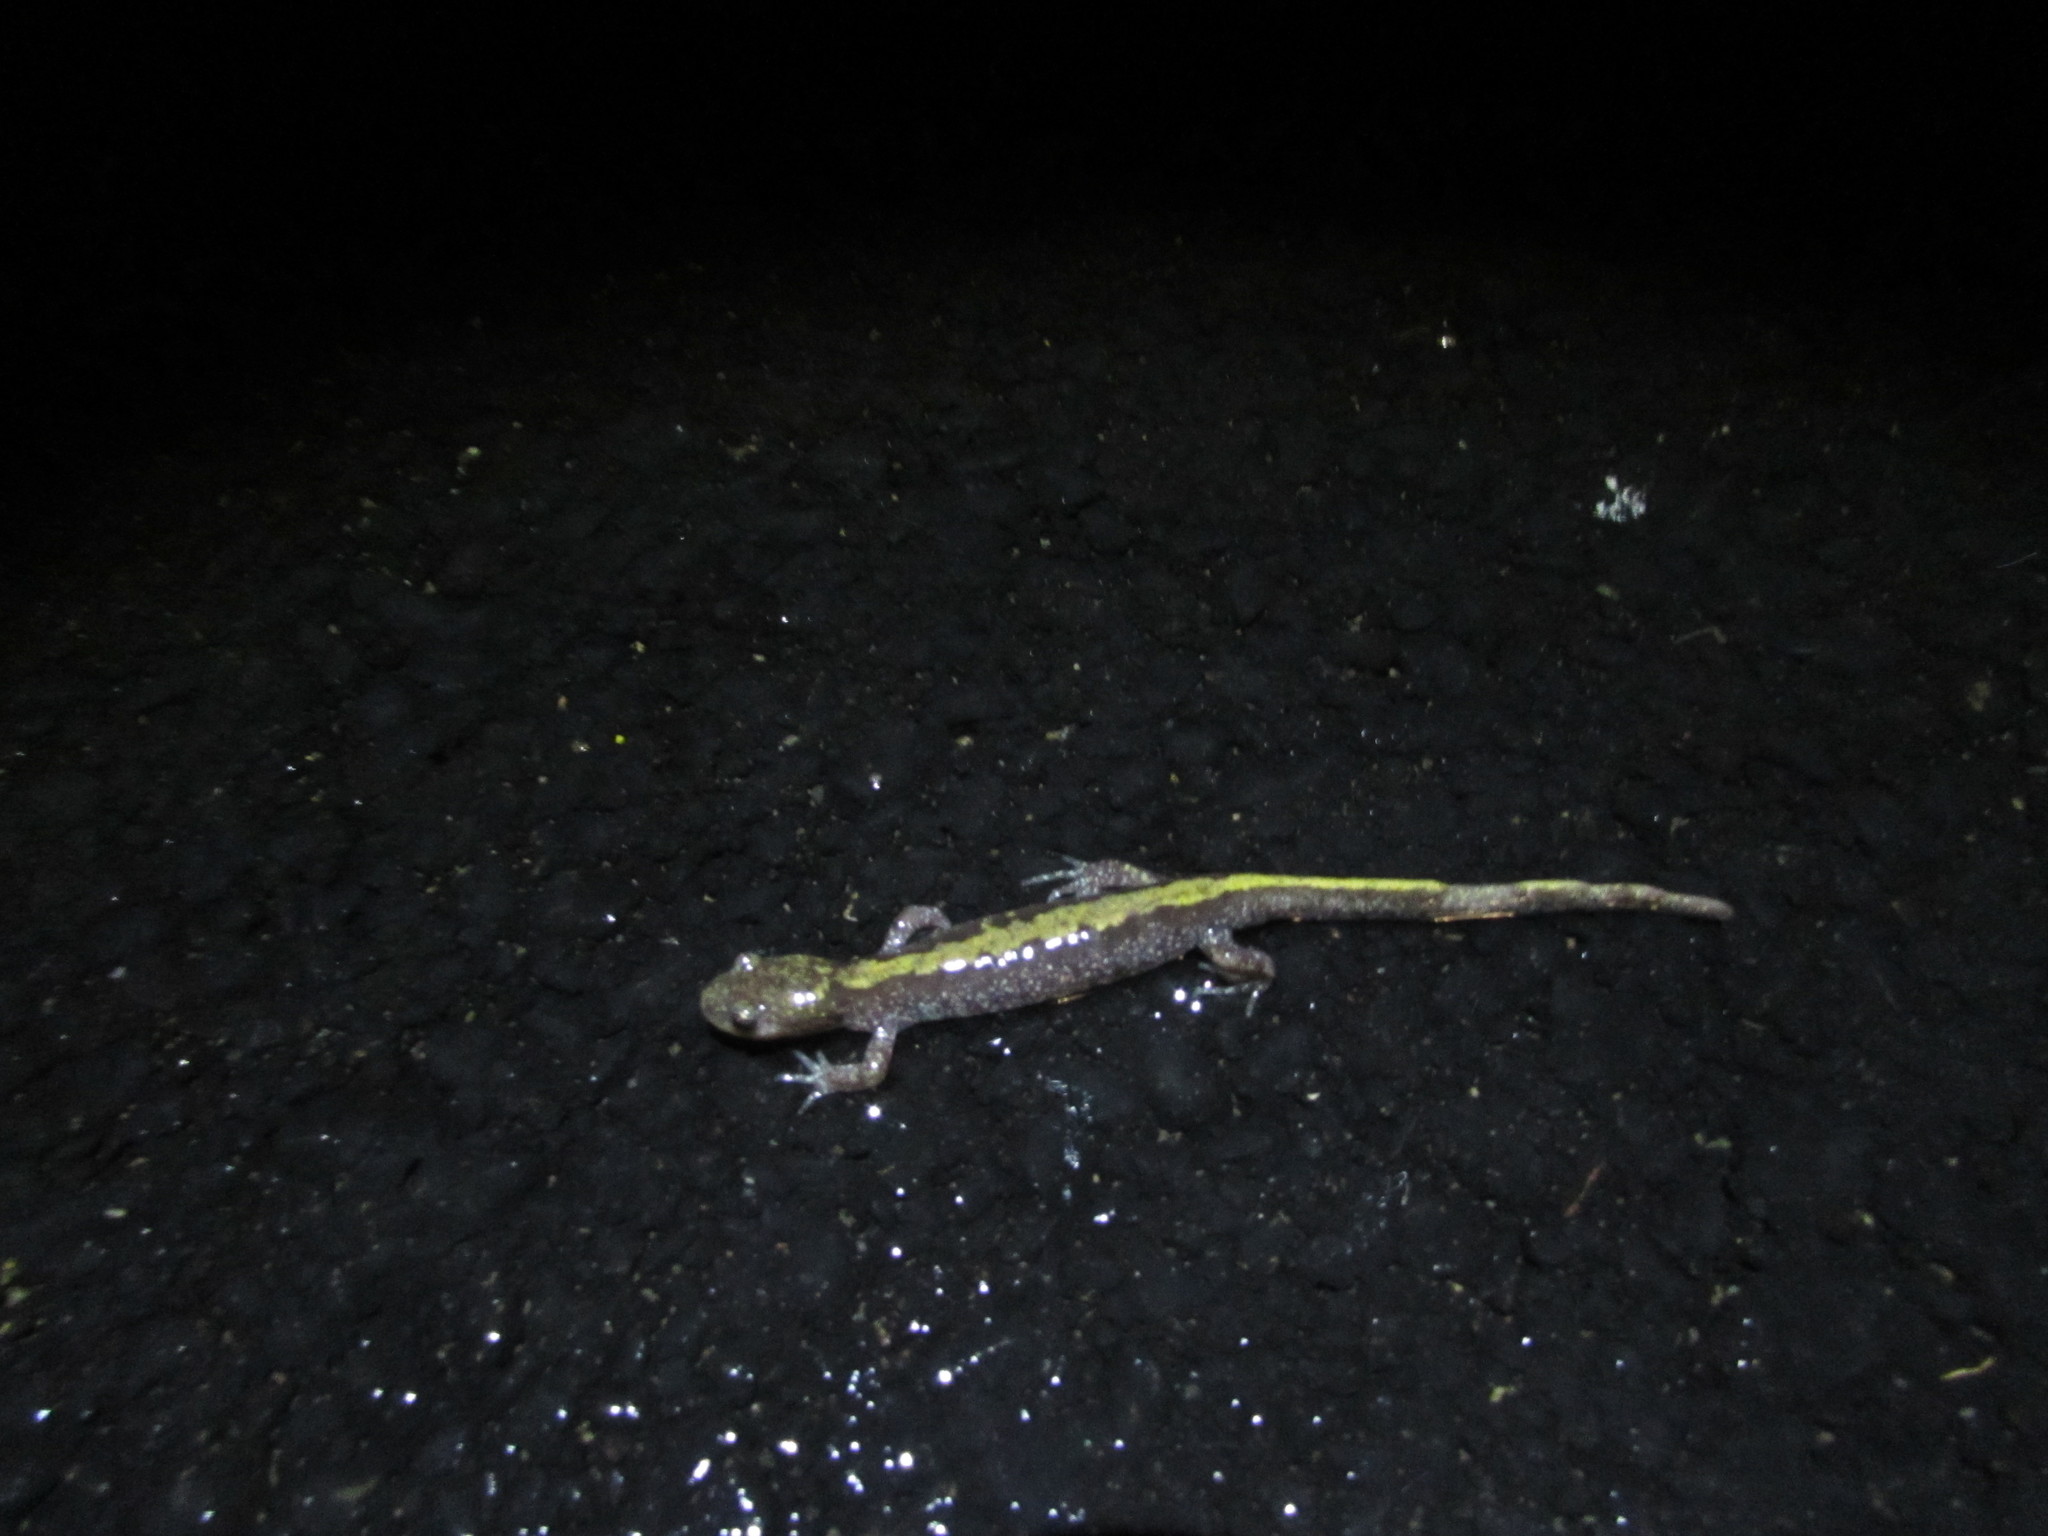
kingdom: Animalia
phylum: Chordata
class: Amphibia
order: Caudata
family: Ambystomatidae
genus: Ambystoma
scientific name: Ambystoma macrodactylum
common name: Long-toed salamander
